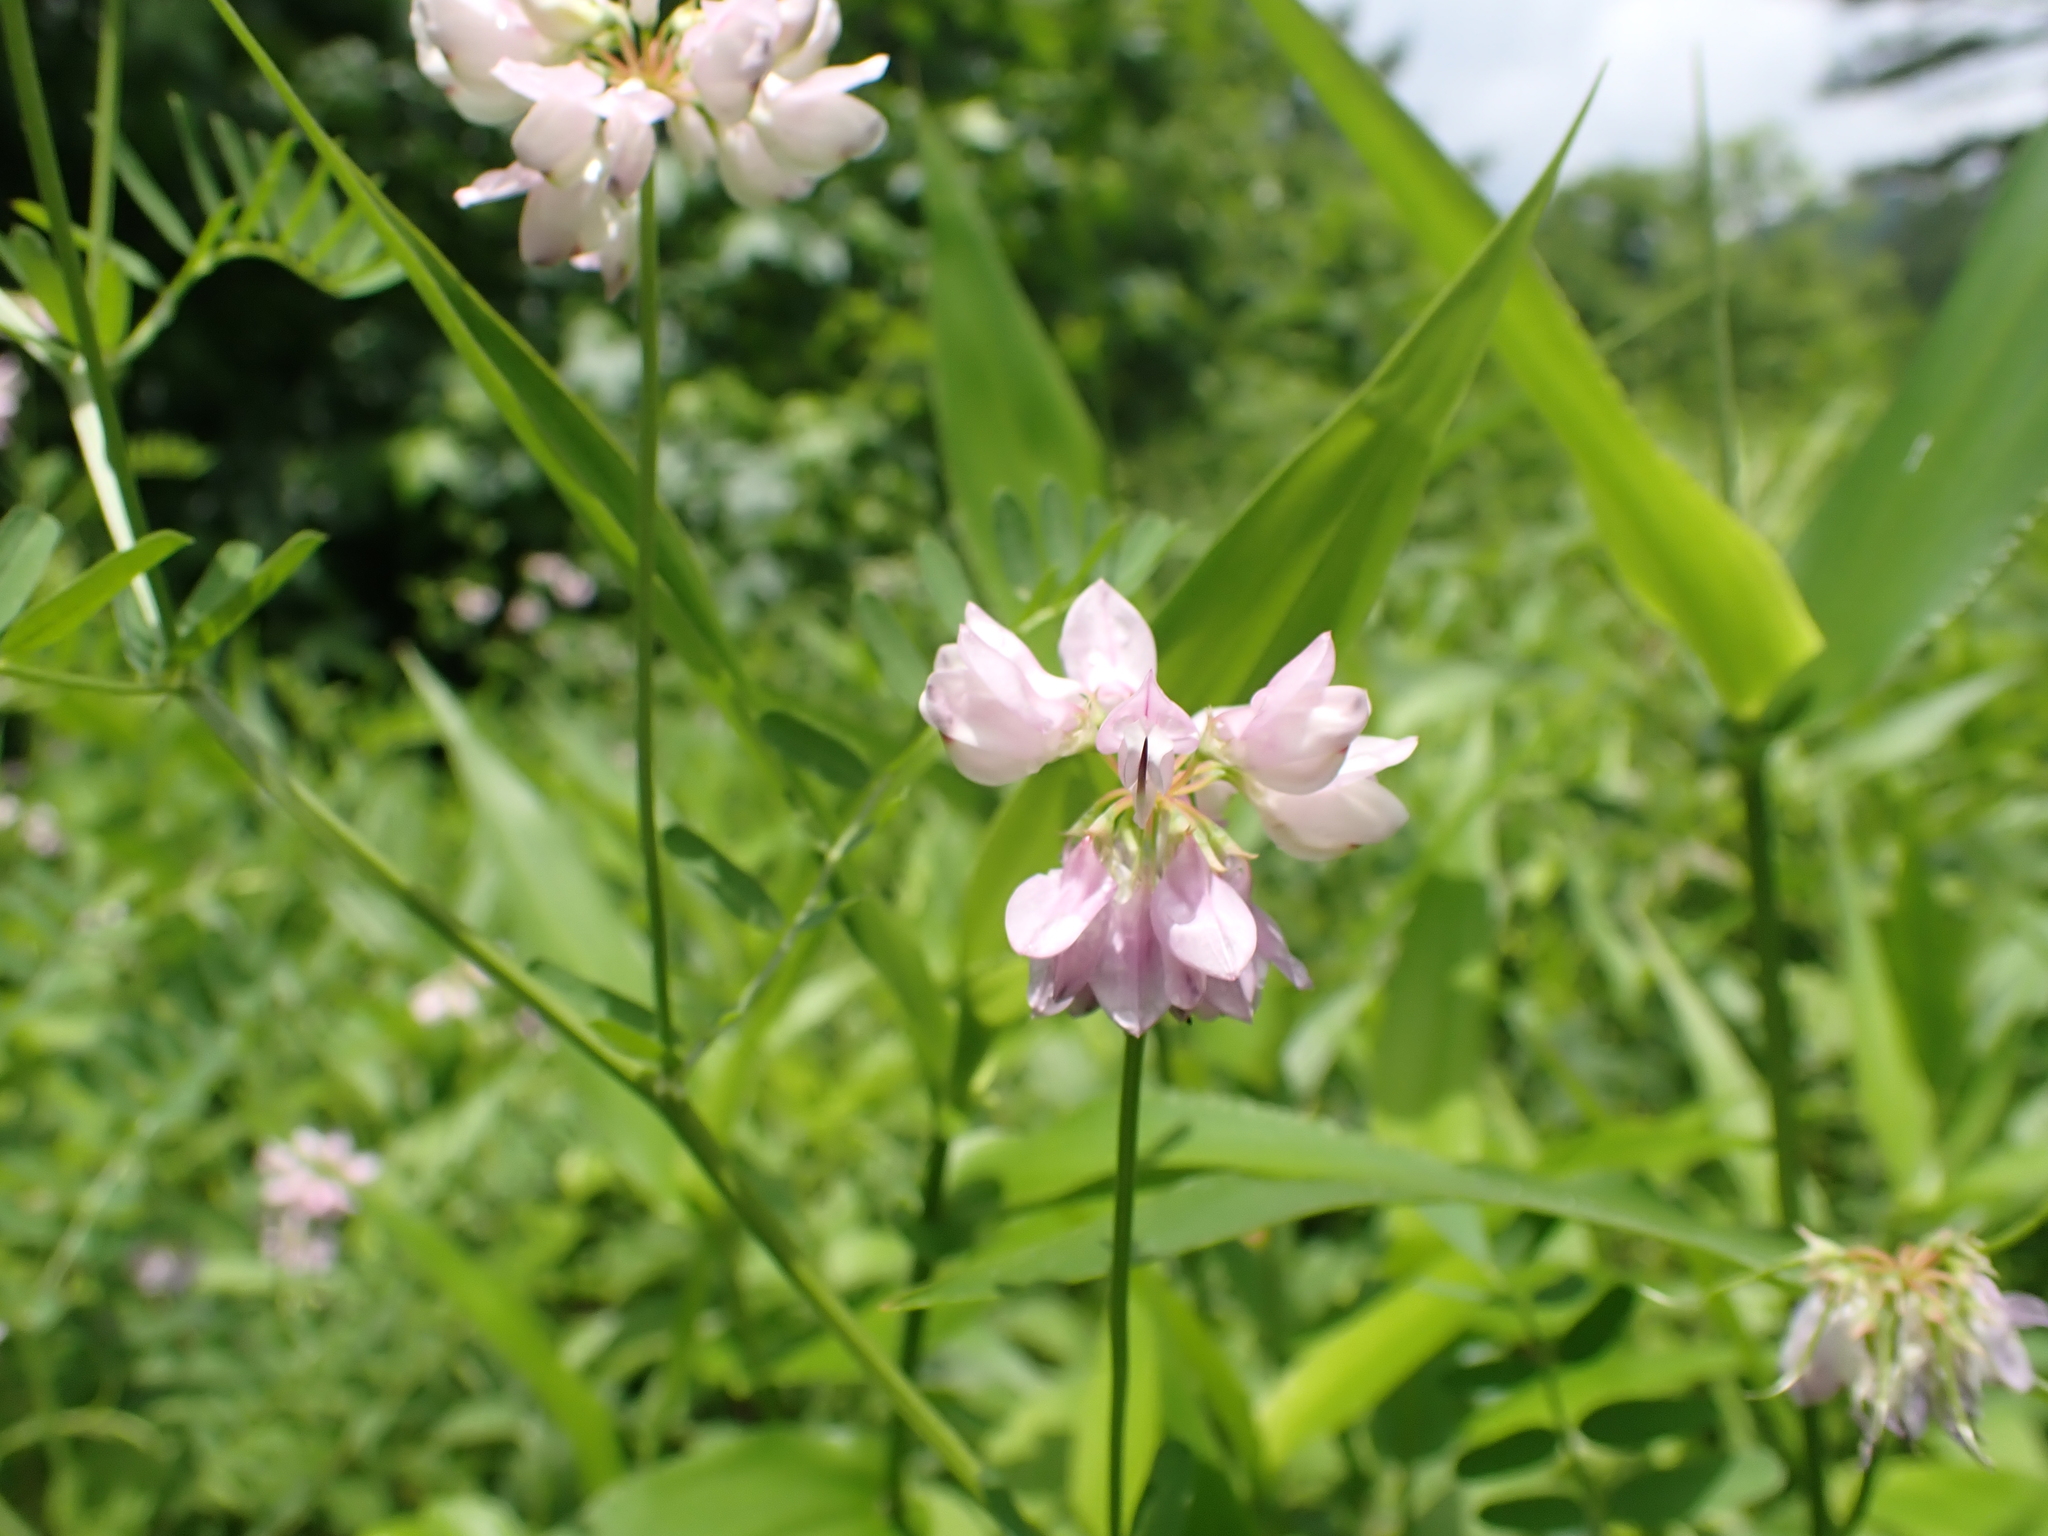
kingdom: Plantae
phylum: Tracheophyta
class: Magnoliopsida
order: Fabales
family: Fabaceae
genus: Coronilla
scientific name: Coronilla varia
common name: Crownvetch
